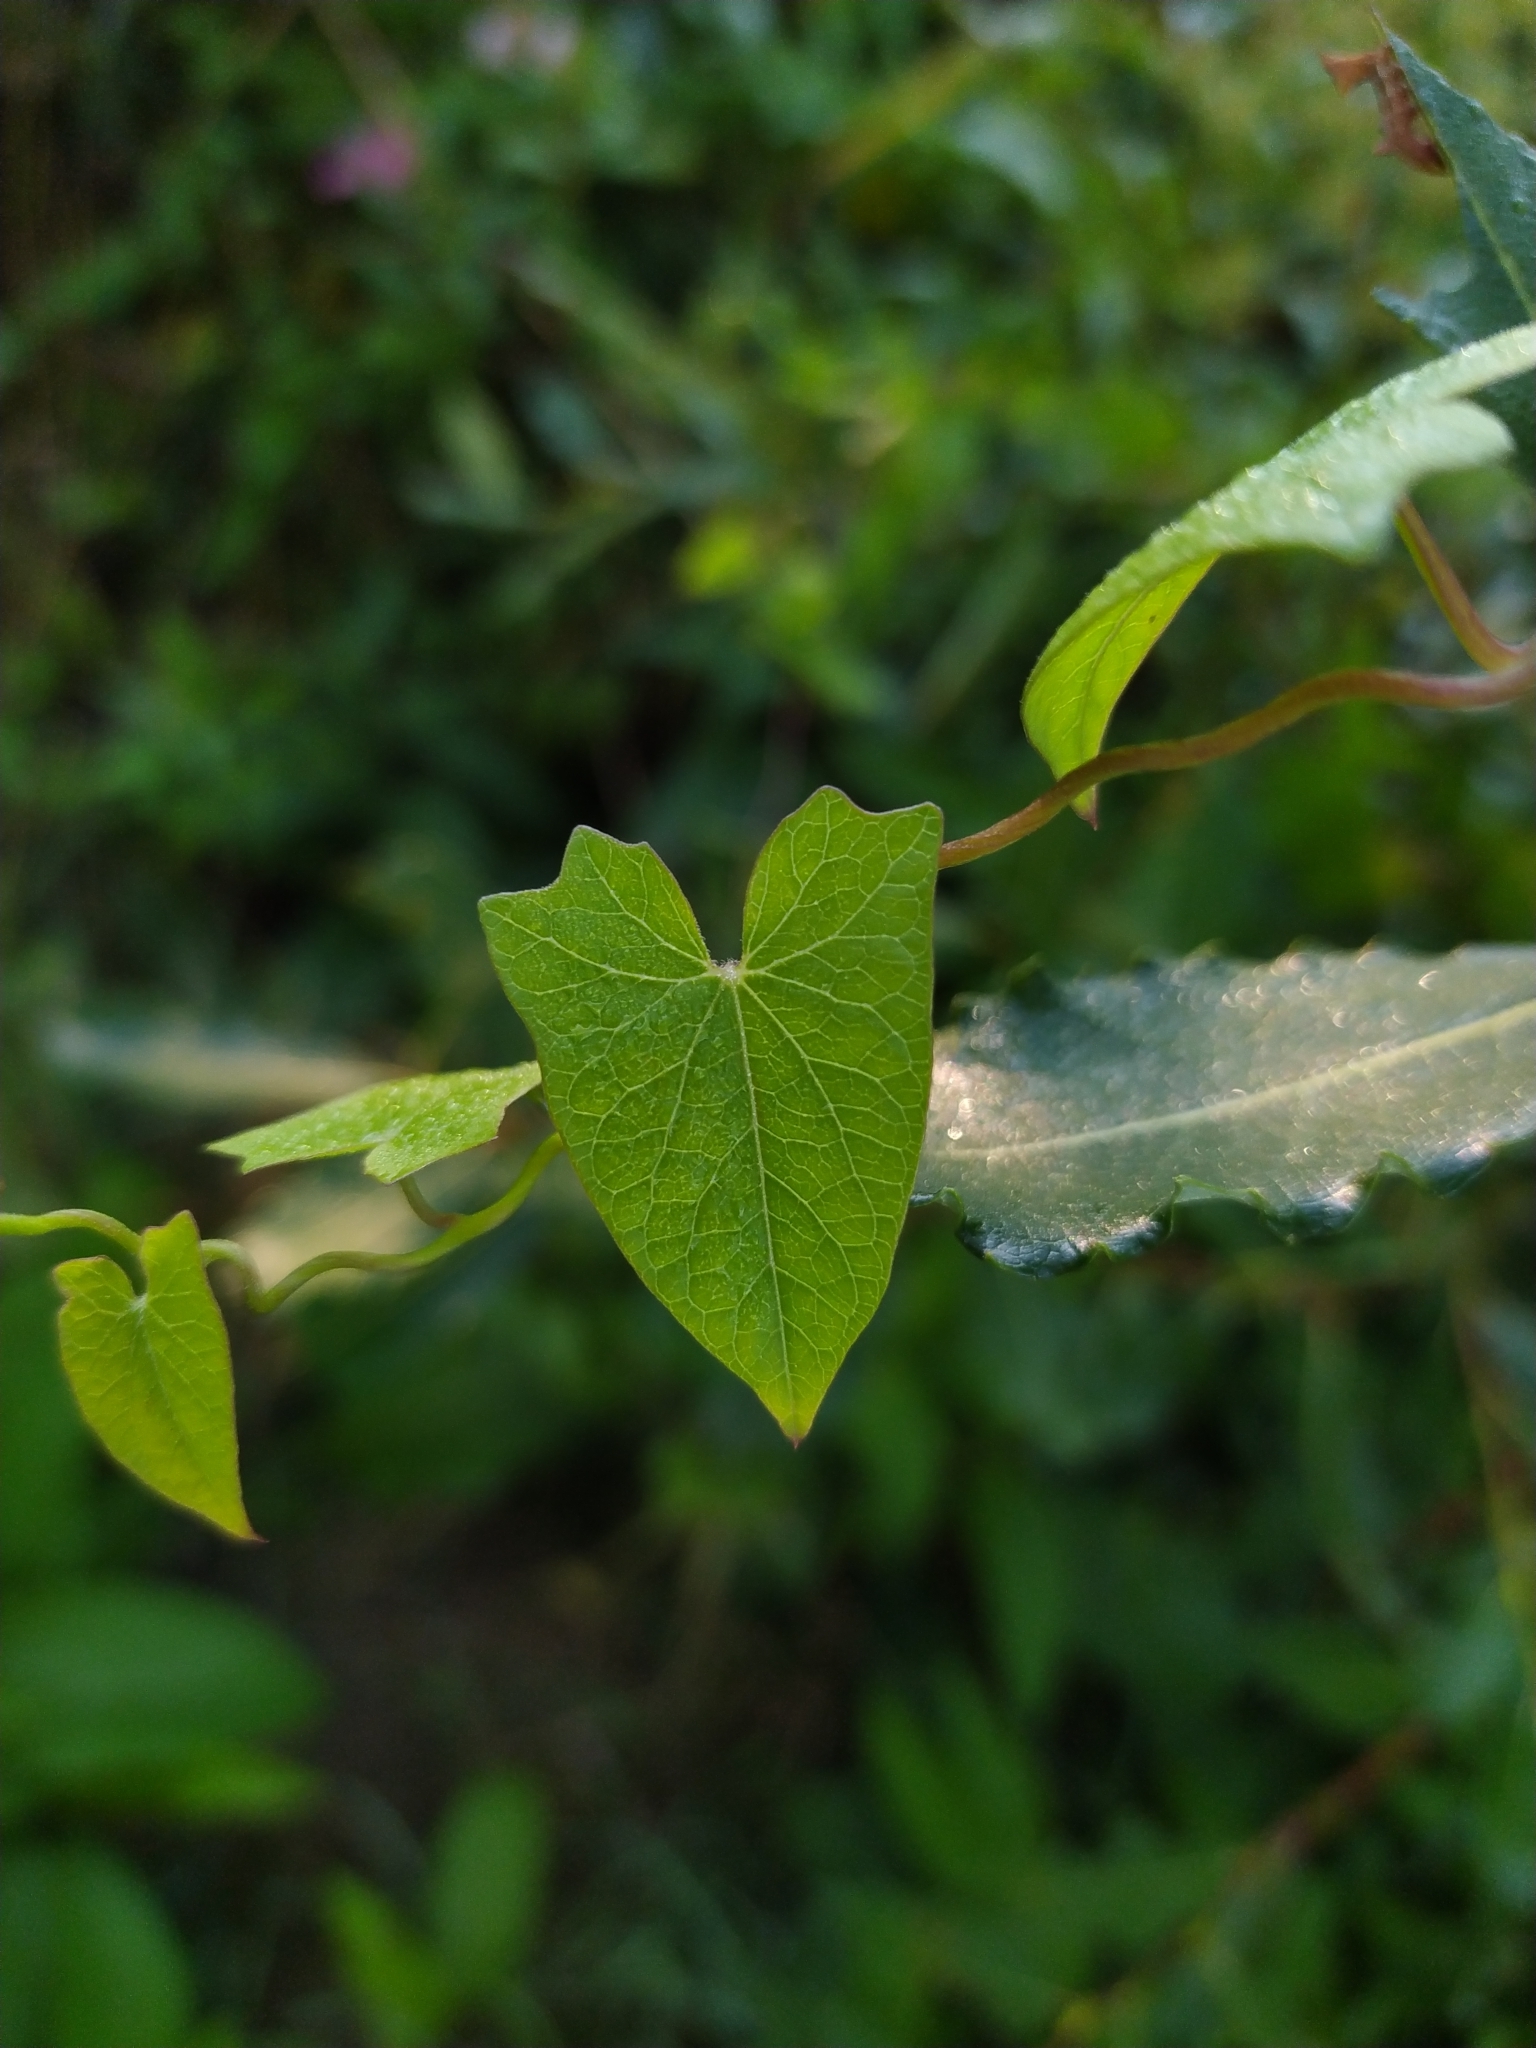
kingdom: Plantae
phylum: Tracheophyta
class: Magnoliopsida
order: Solanales
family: Convolvulaceae
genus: Calystegia
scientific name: Calystegia sepium
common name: Hedge bindweed
